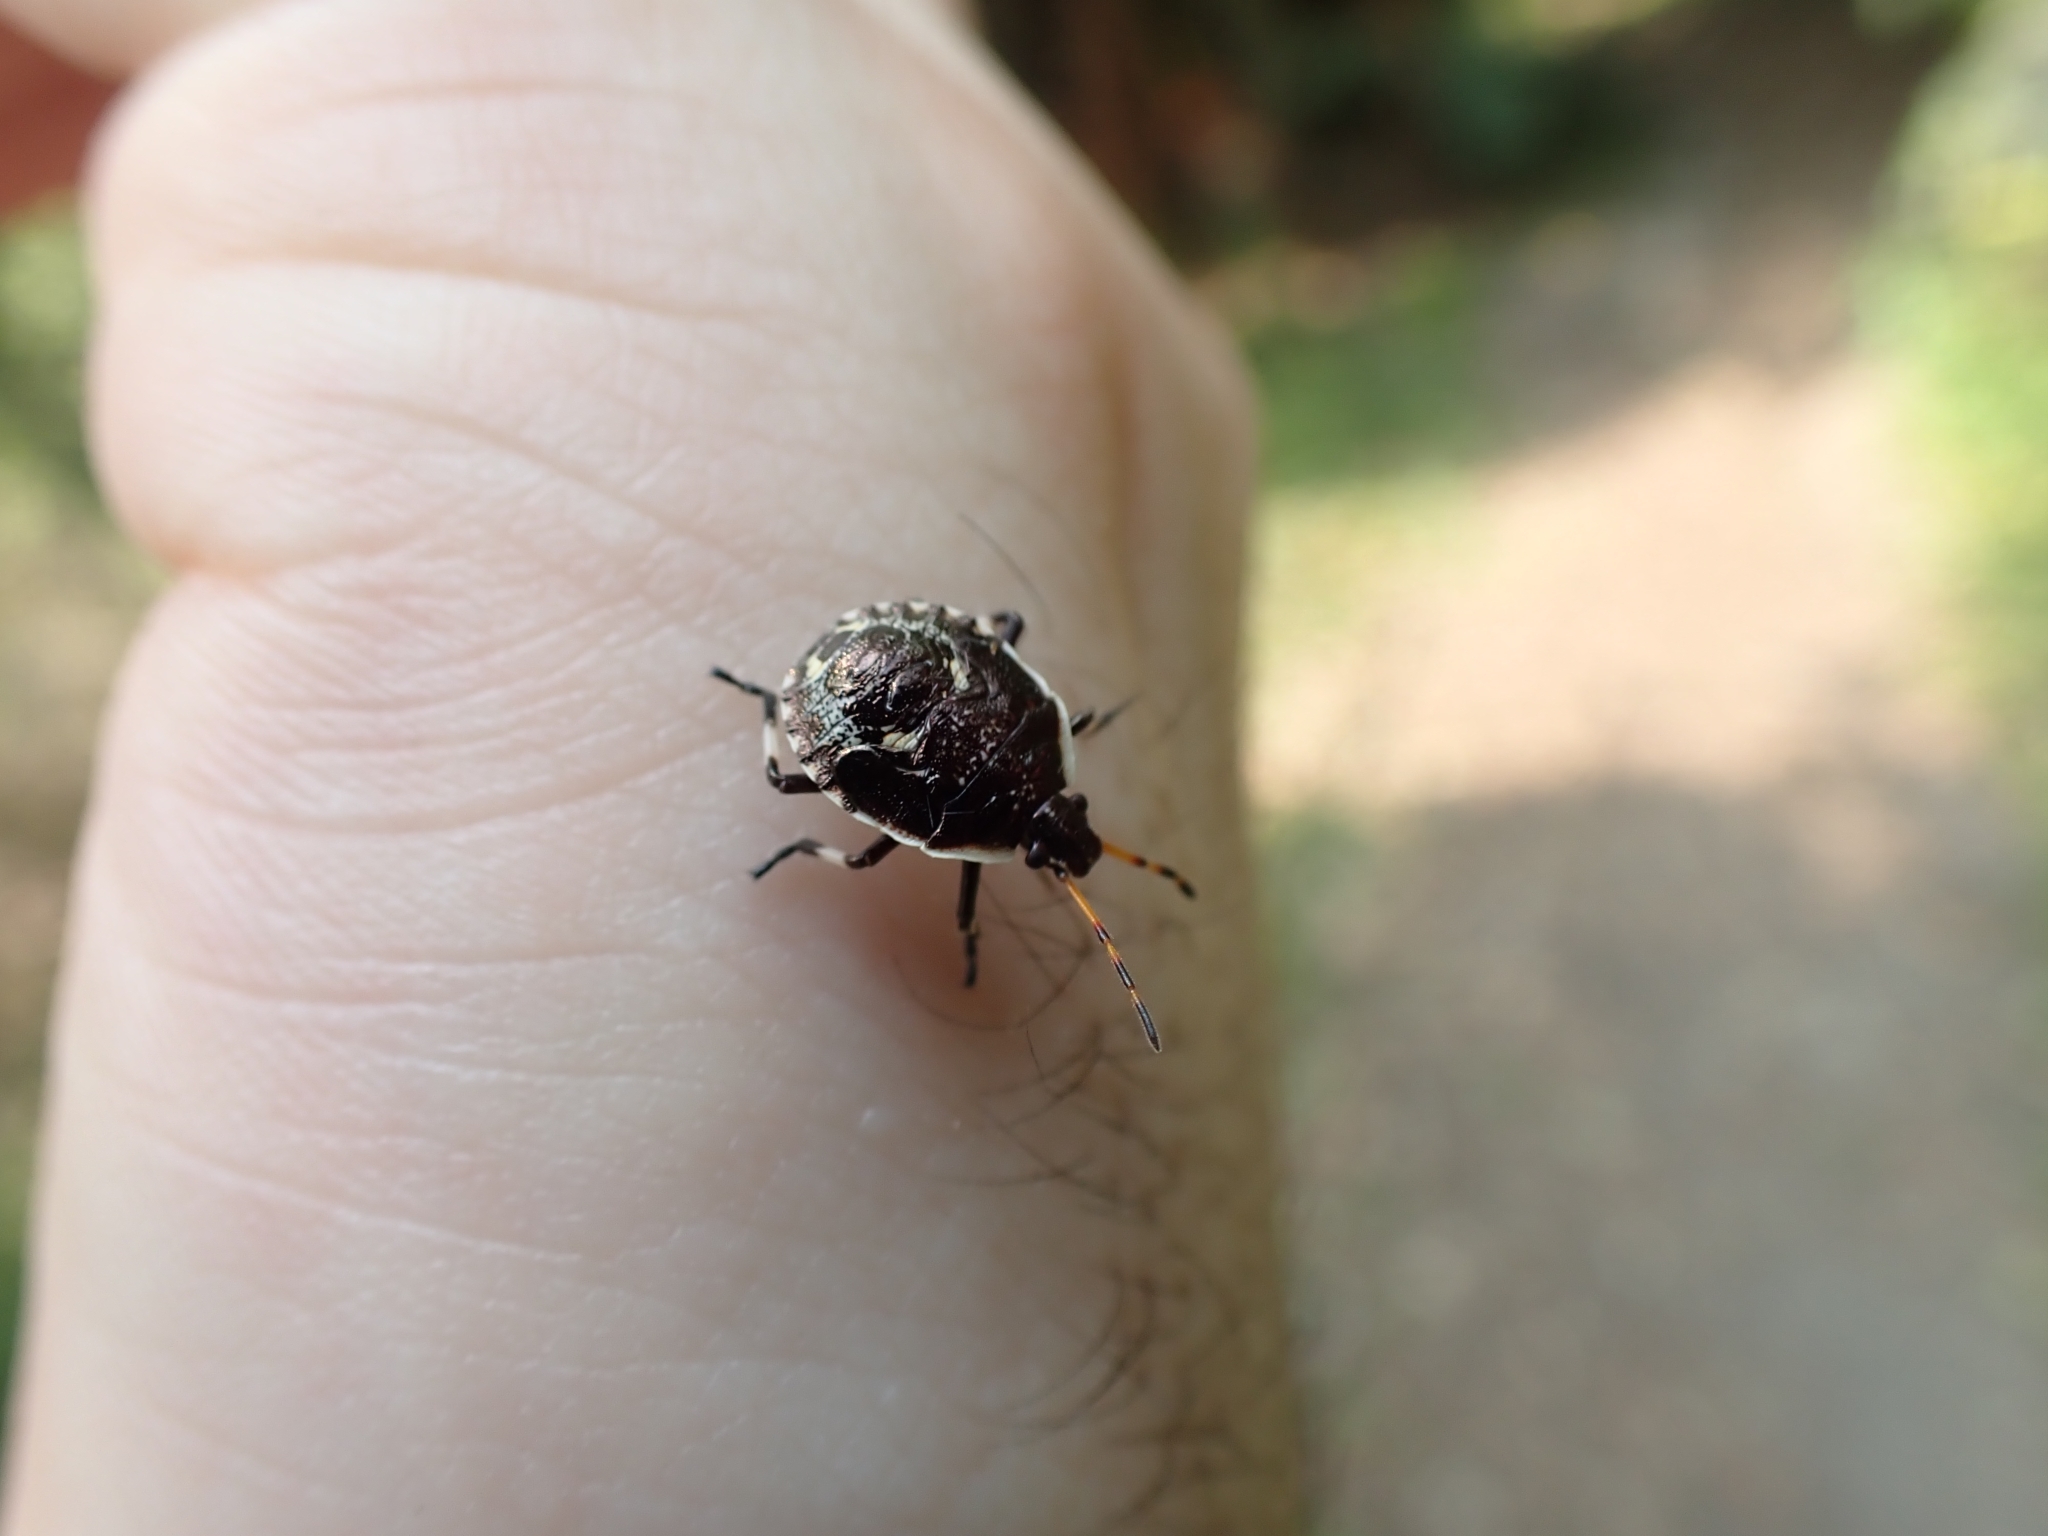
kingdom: Animalia
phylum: Arthropoda
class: Insecta
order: Hemiptera
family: Pentatomidae
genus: Cermatulus
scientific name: Cermatulus nasalis
